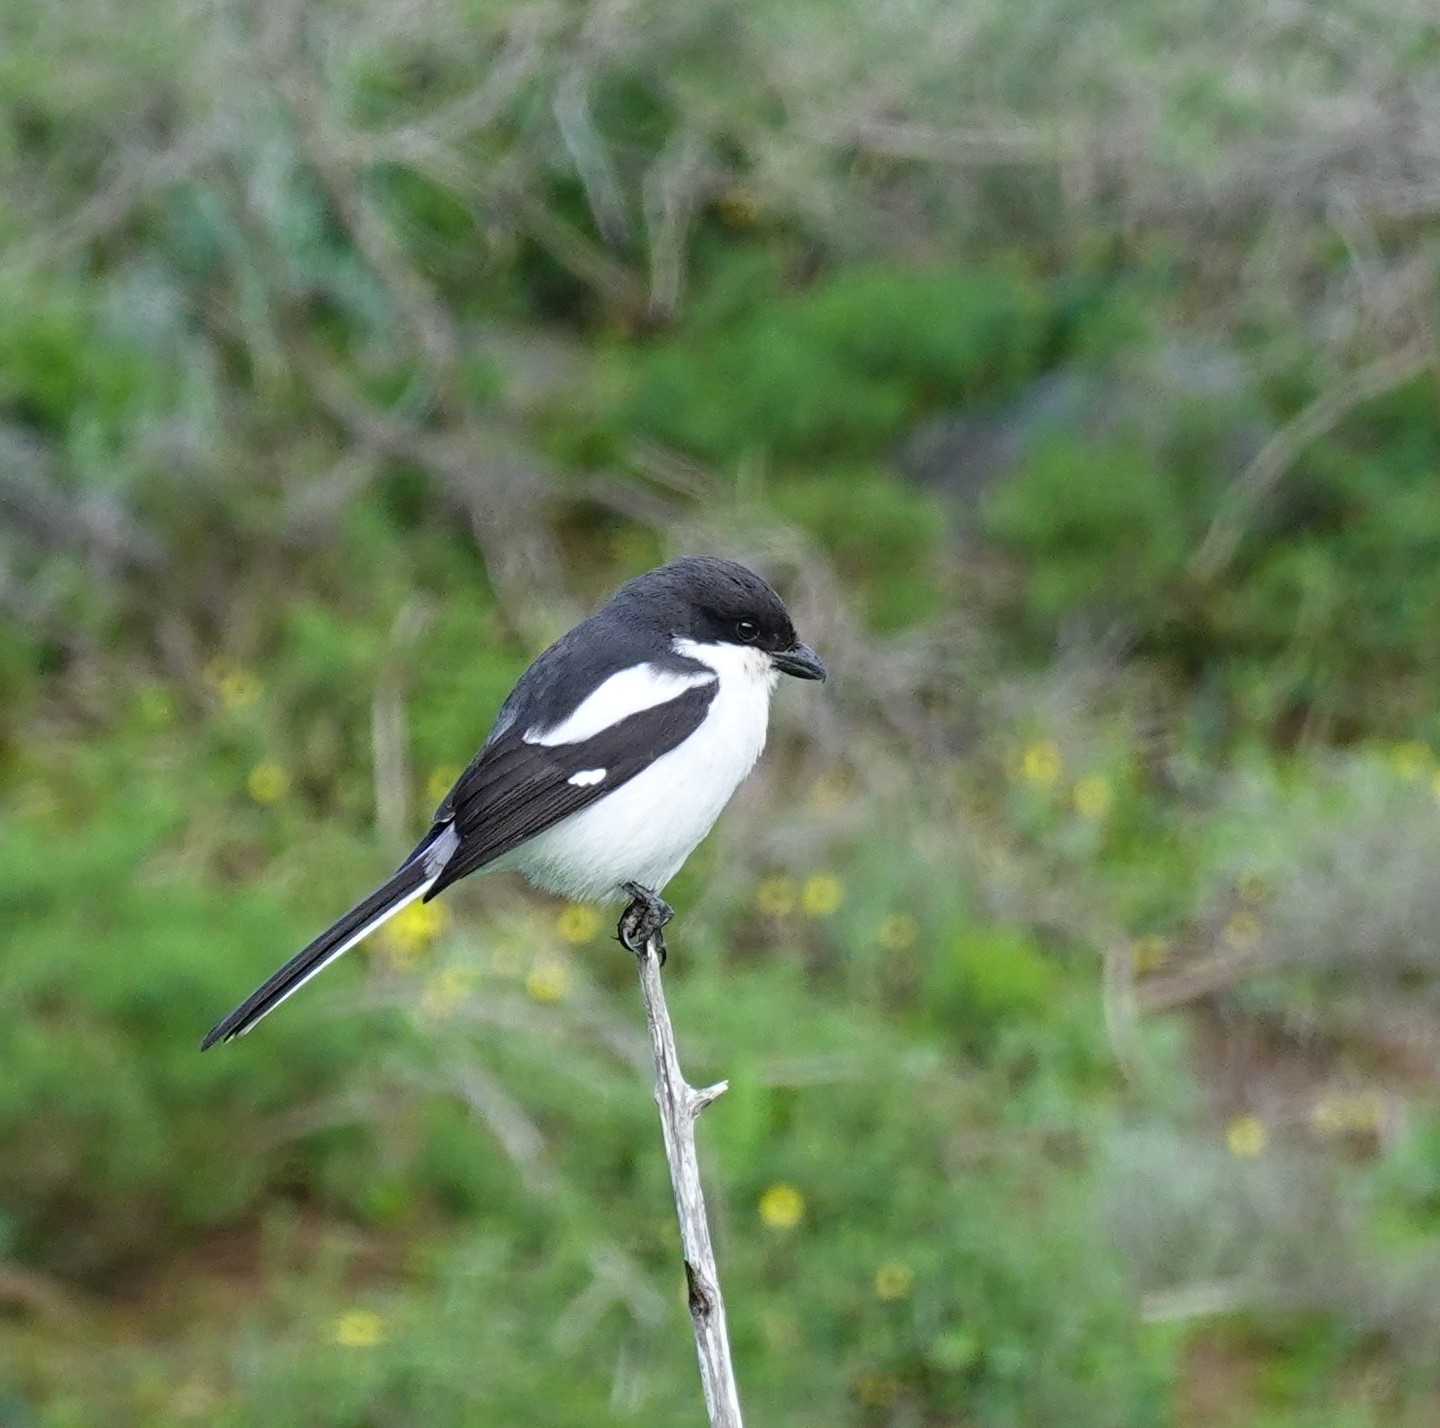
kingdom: Animalia
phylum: Chordata
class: Aves
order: Passeriformes
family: Laniidae
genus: Lanius
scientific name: Lanius collaris
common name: Southern fiscal
